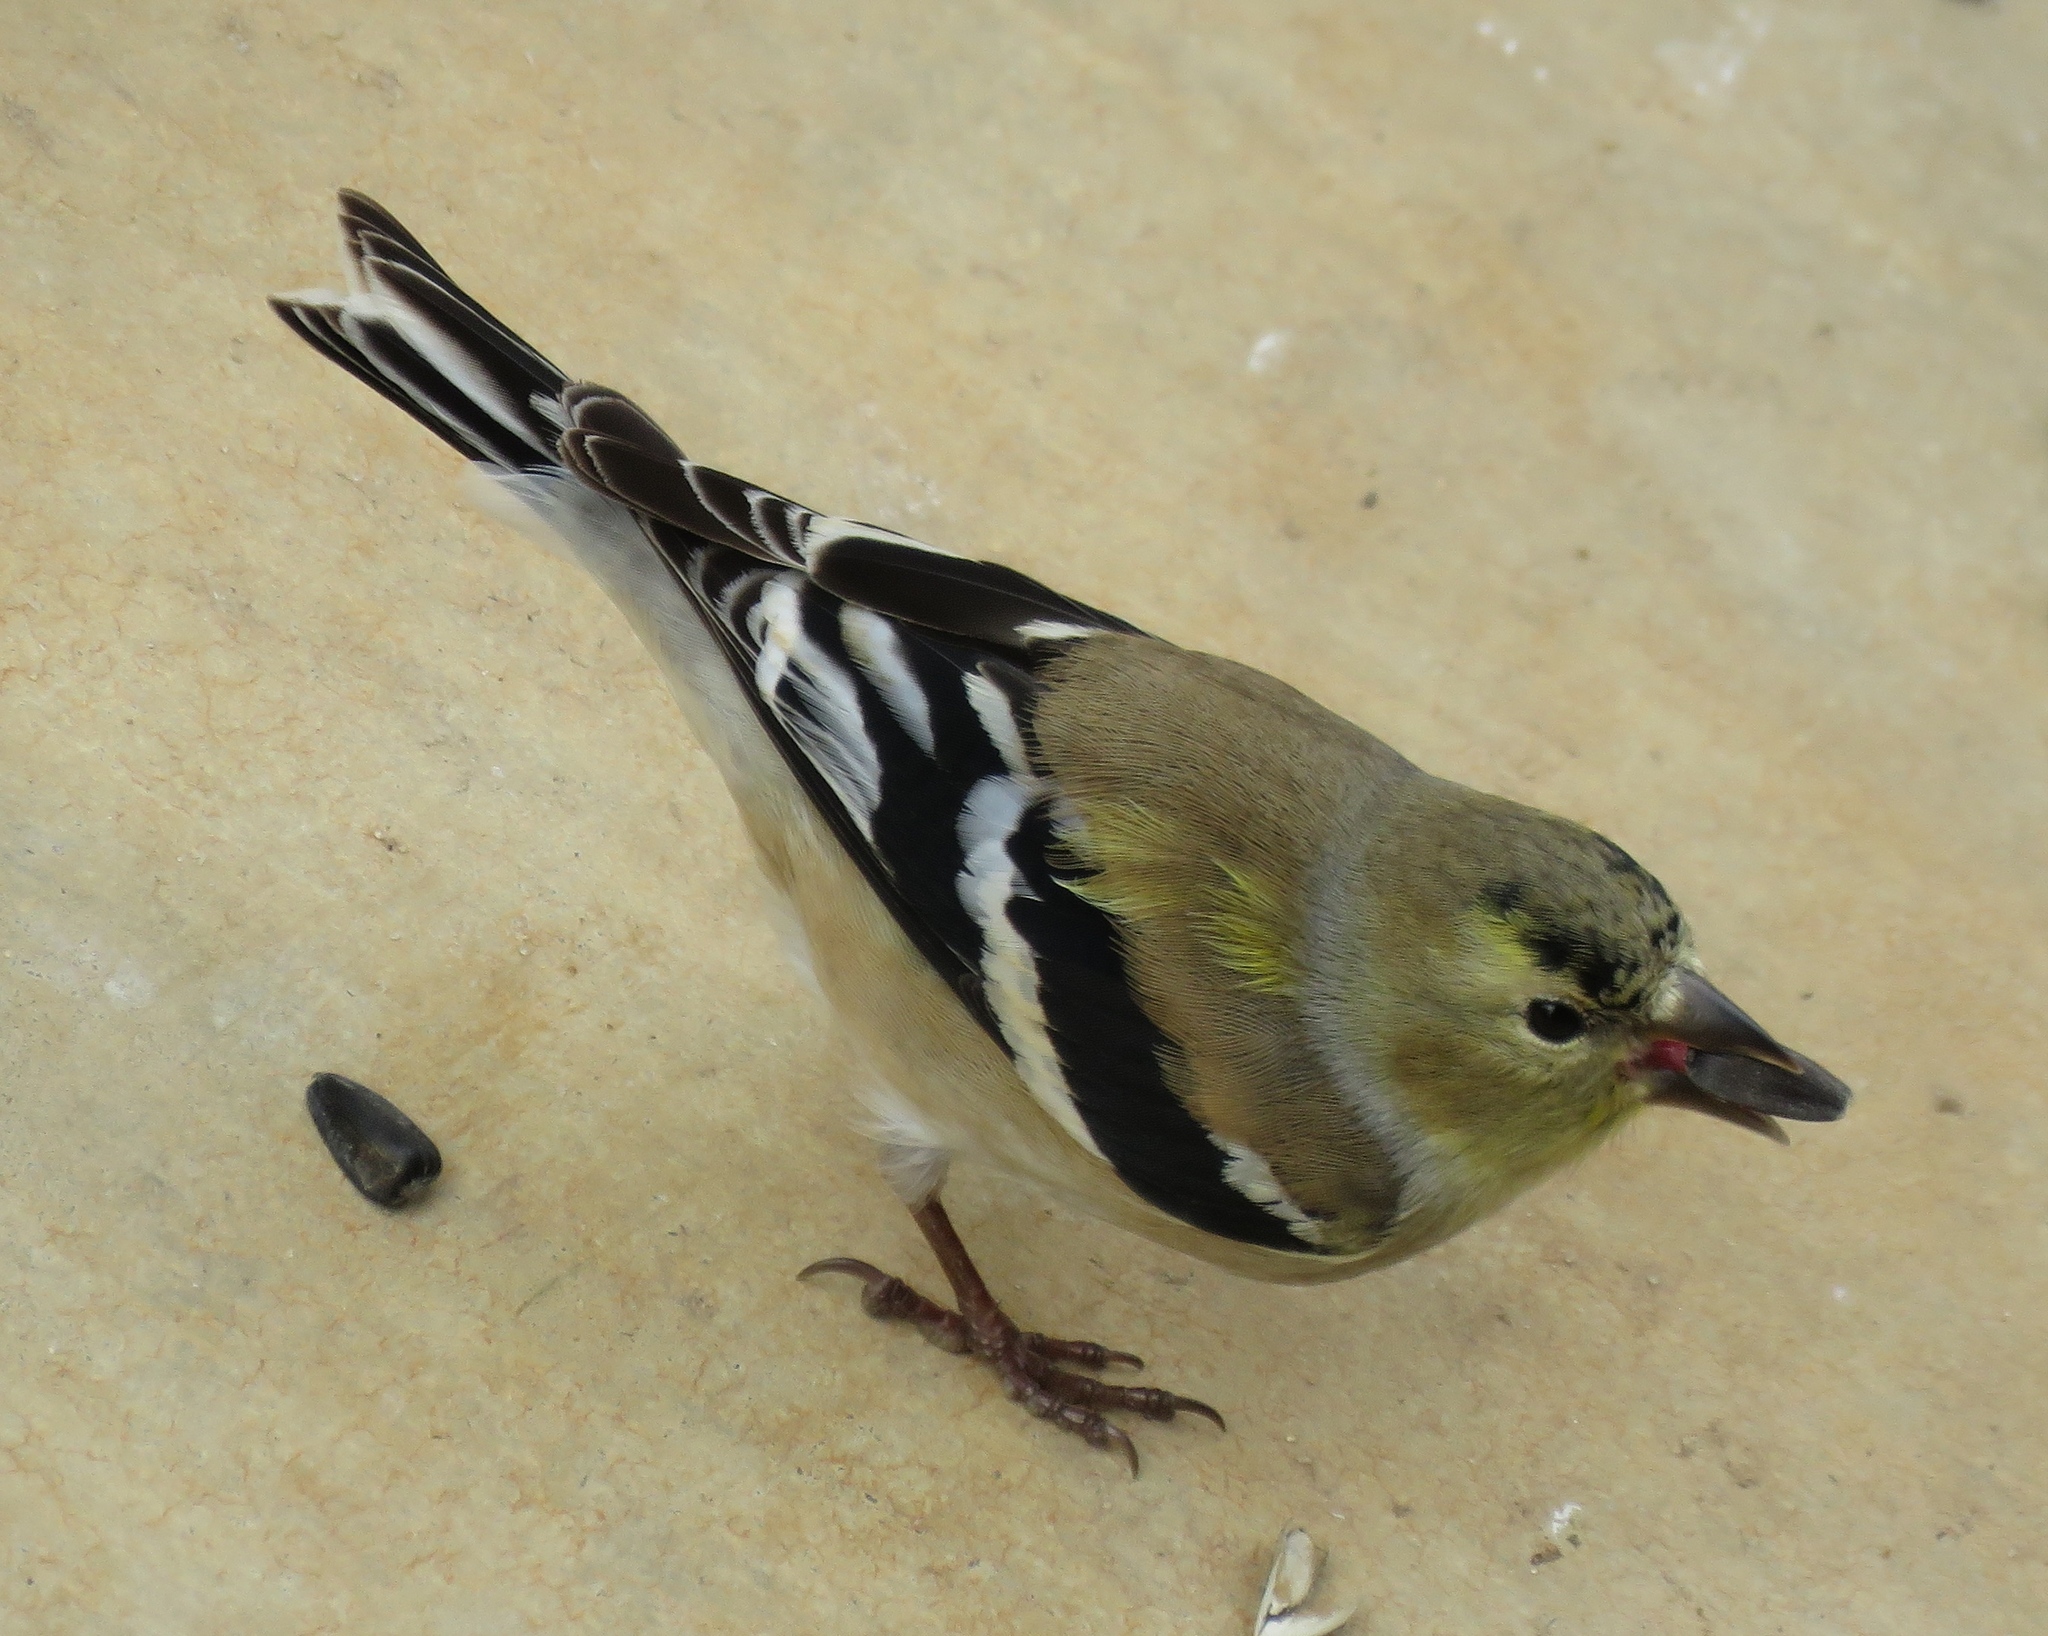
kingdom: Animalia
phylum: Chordata
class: Aves
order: Passeriformes
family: Fringillidae
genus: Spinus
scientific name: Spinus tristis
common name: American goldfinch
